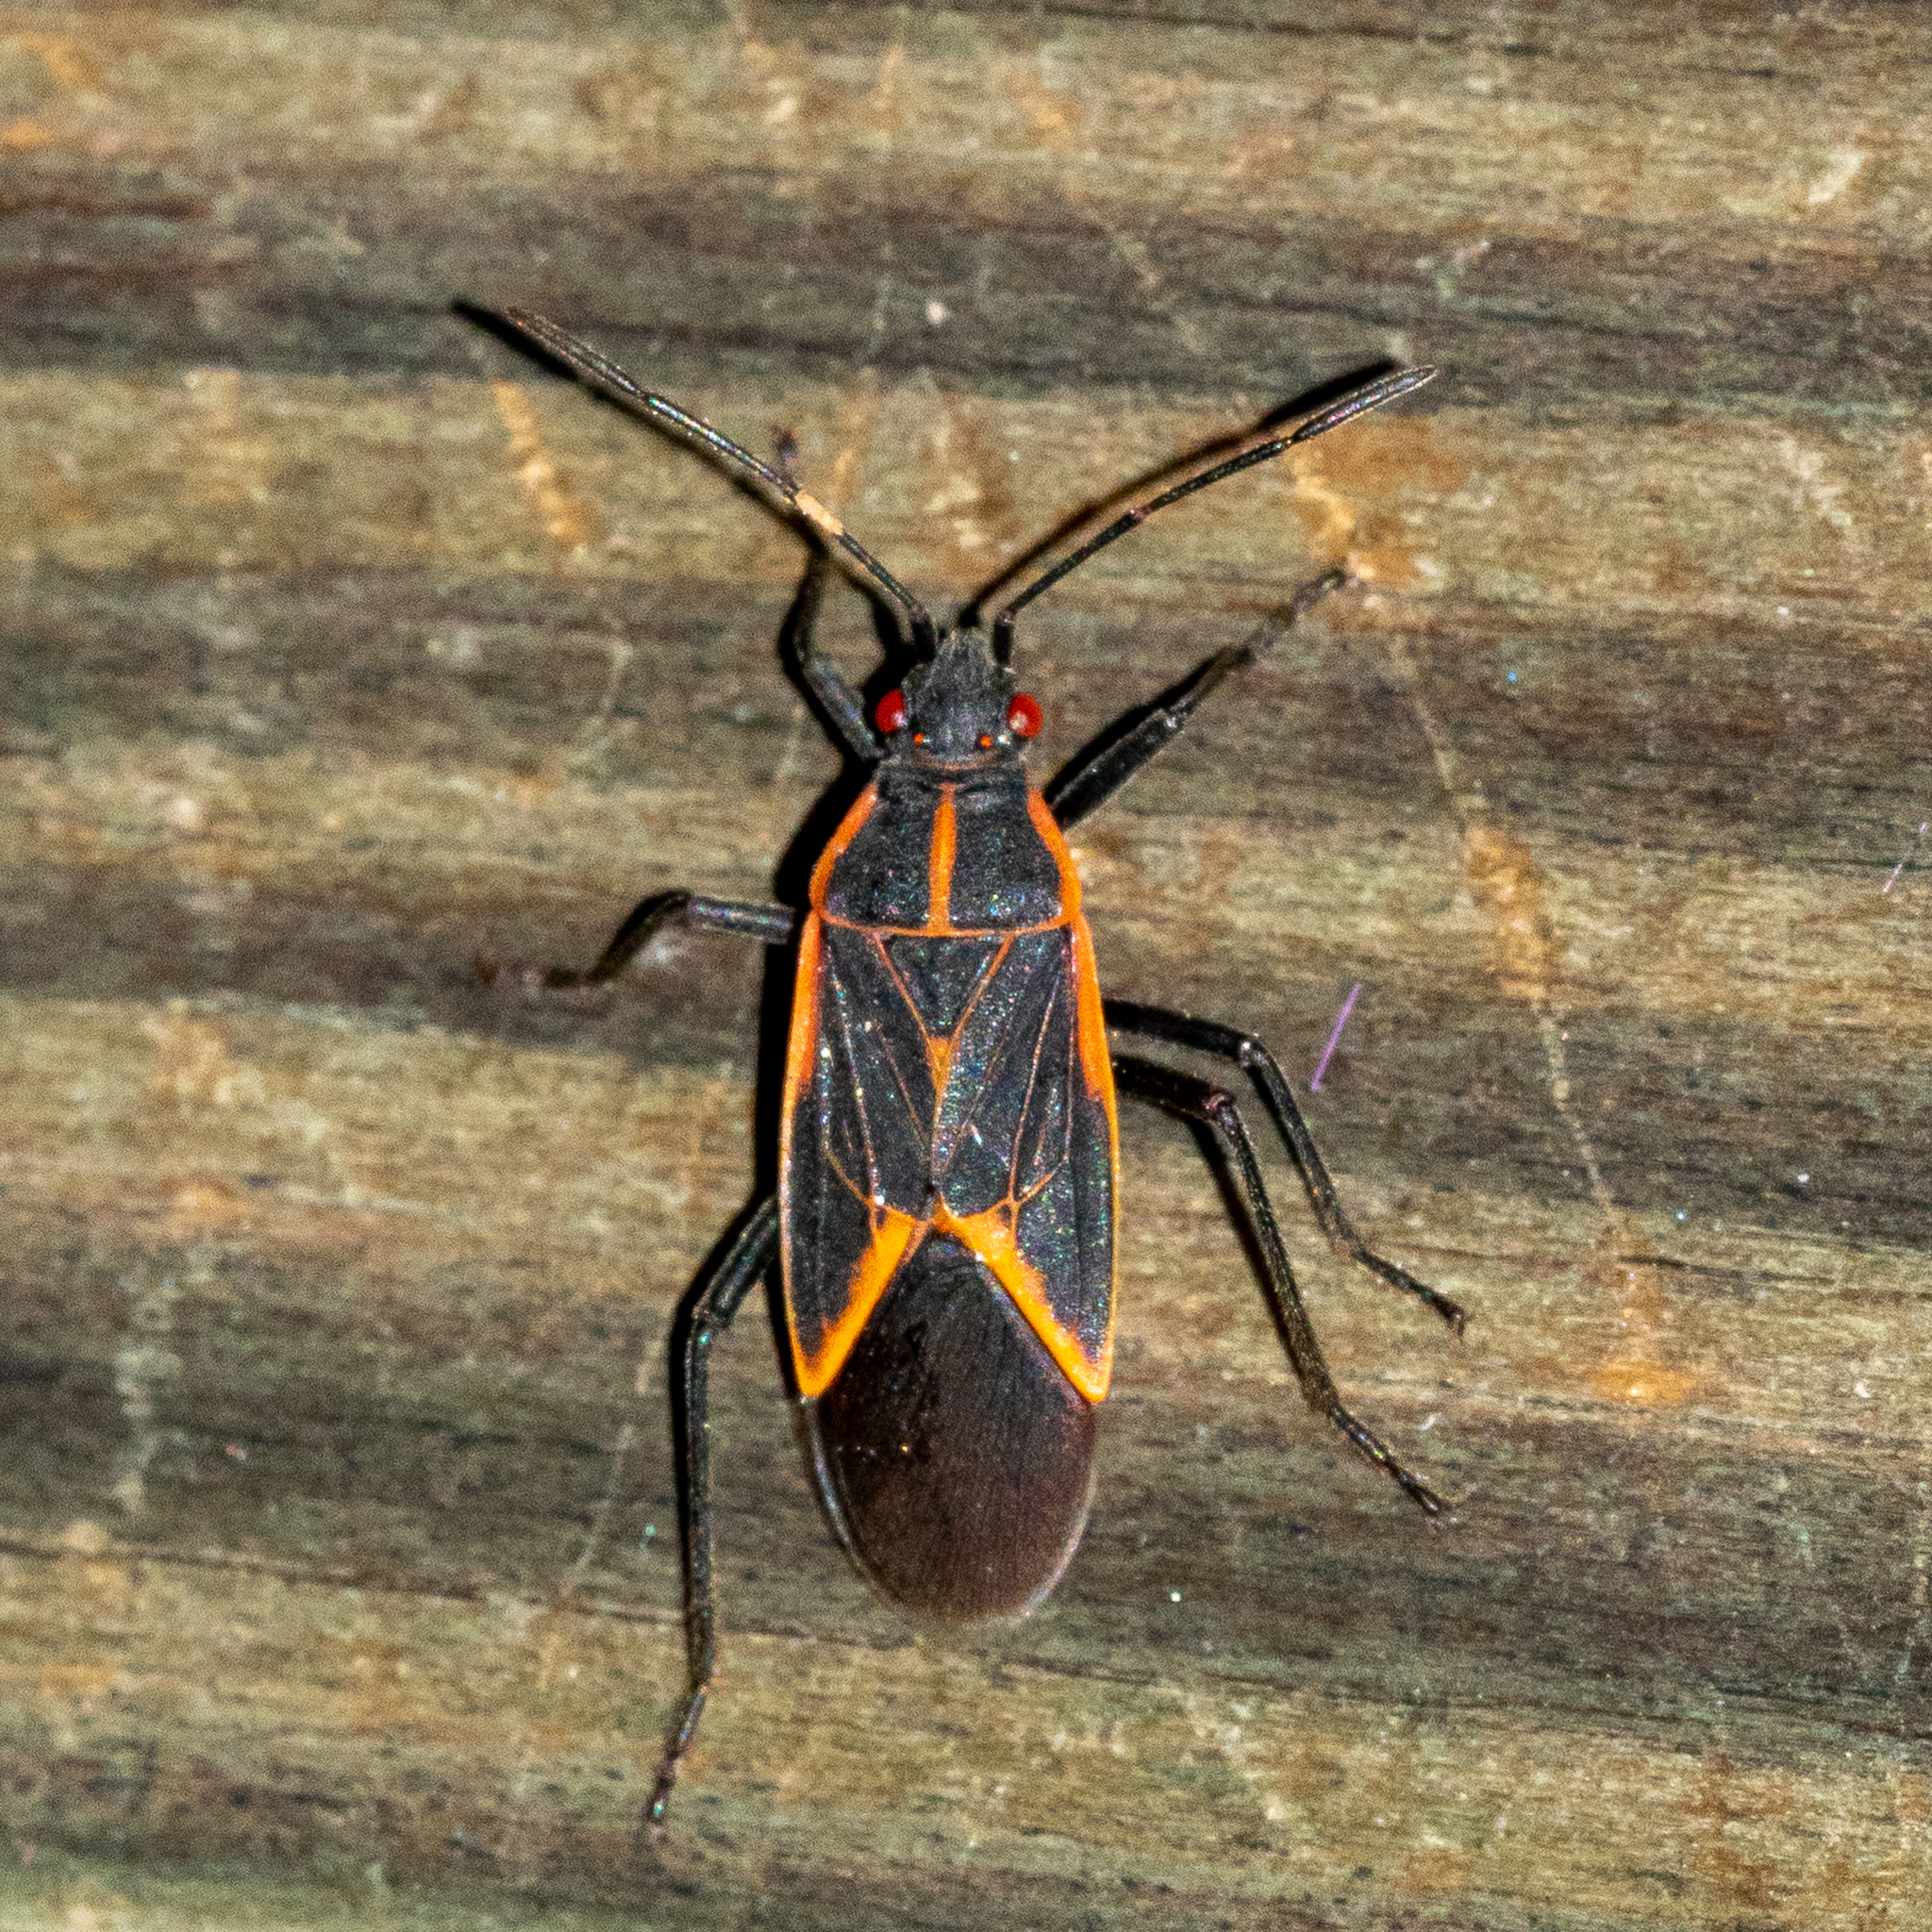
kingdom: Animalia
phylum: Arthropoda
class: Insecta
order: Hemiptera
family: Rhopalidae
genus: Boisea
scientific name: Boisea trivittata
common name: Boxelder bug
